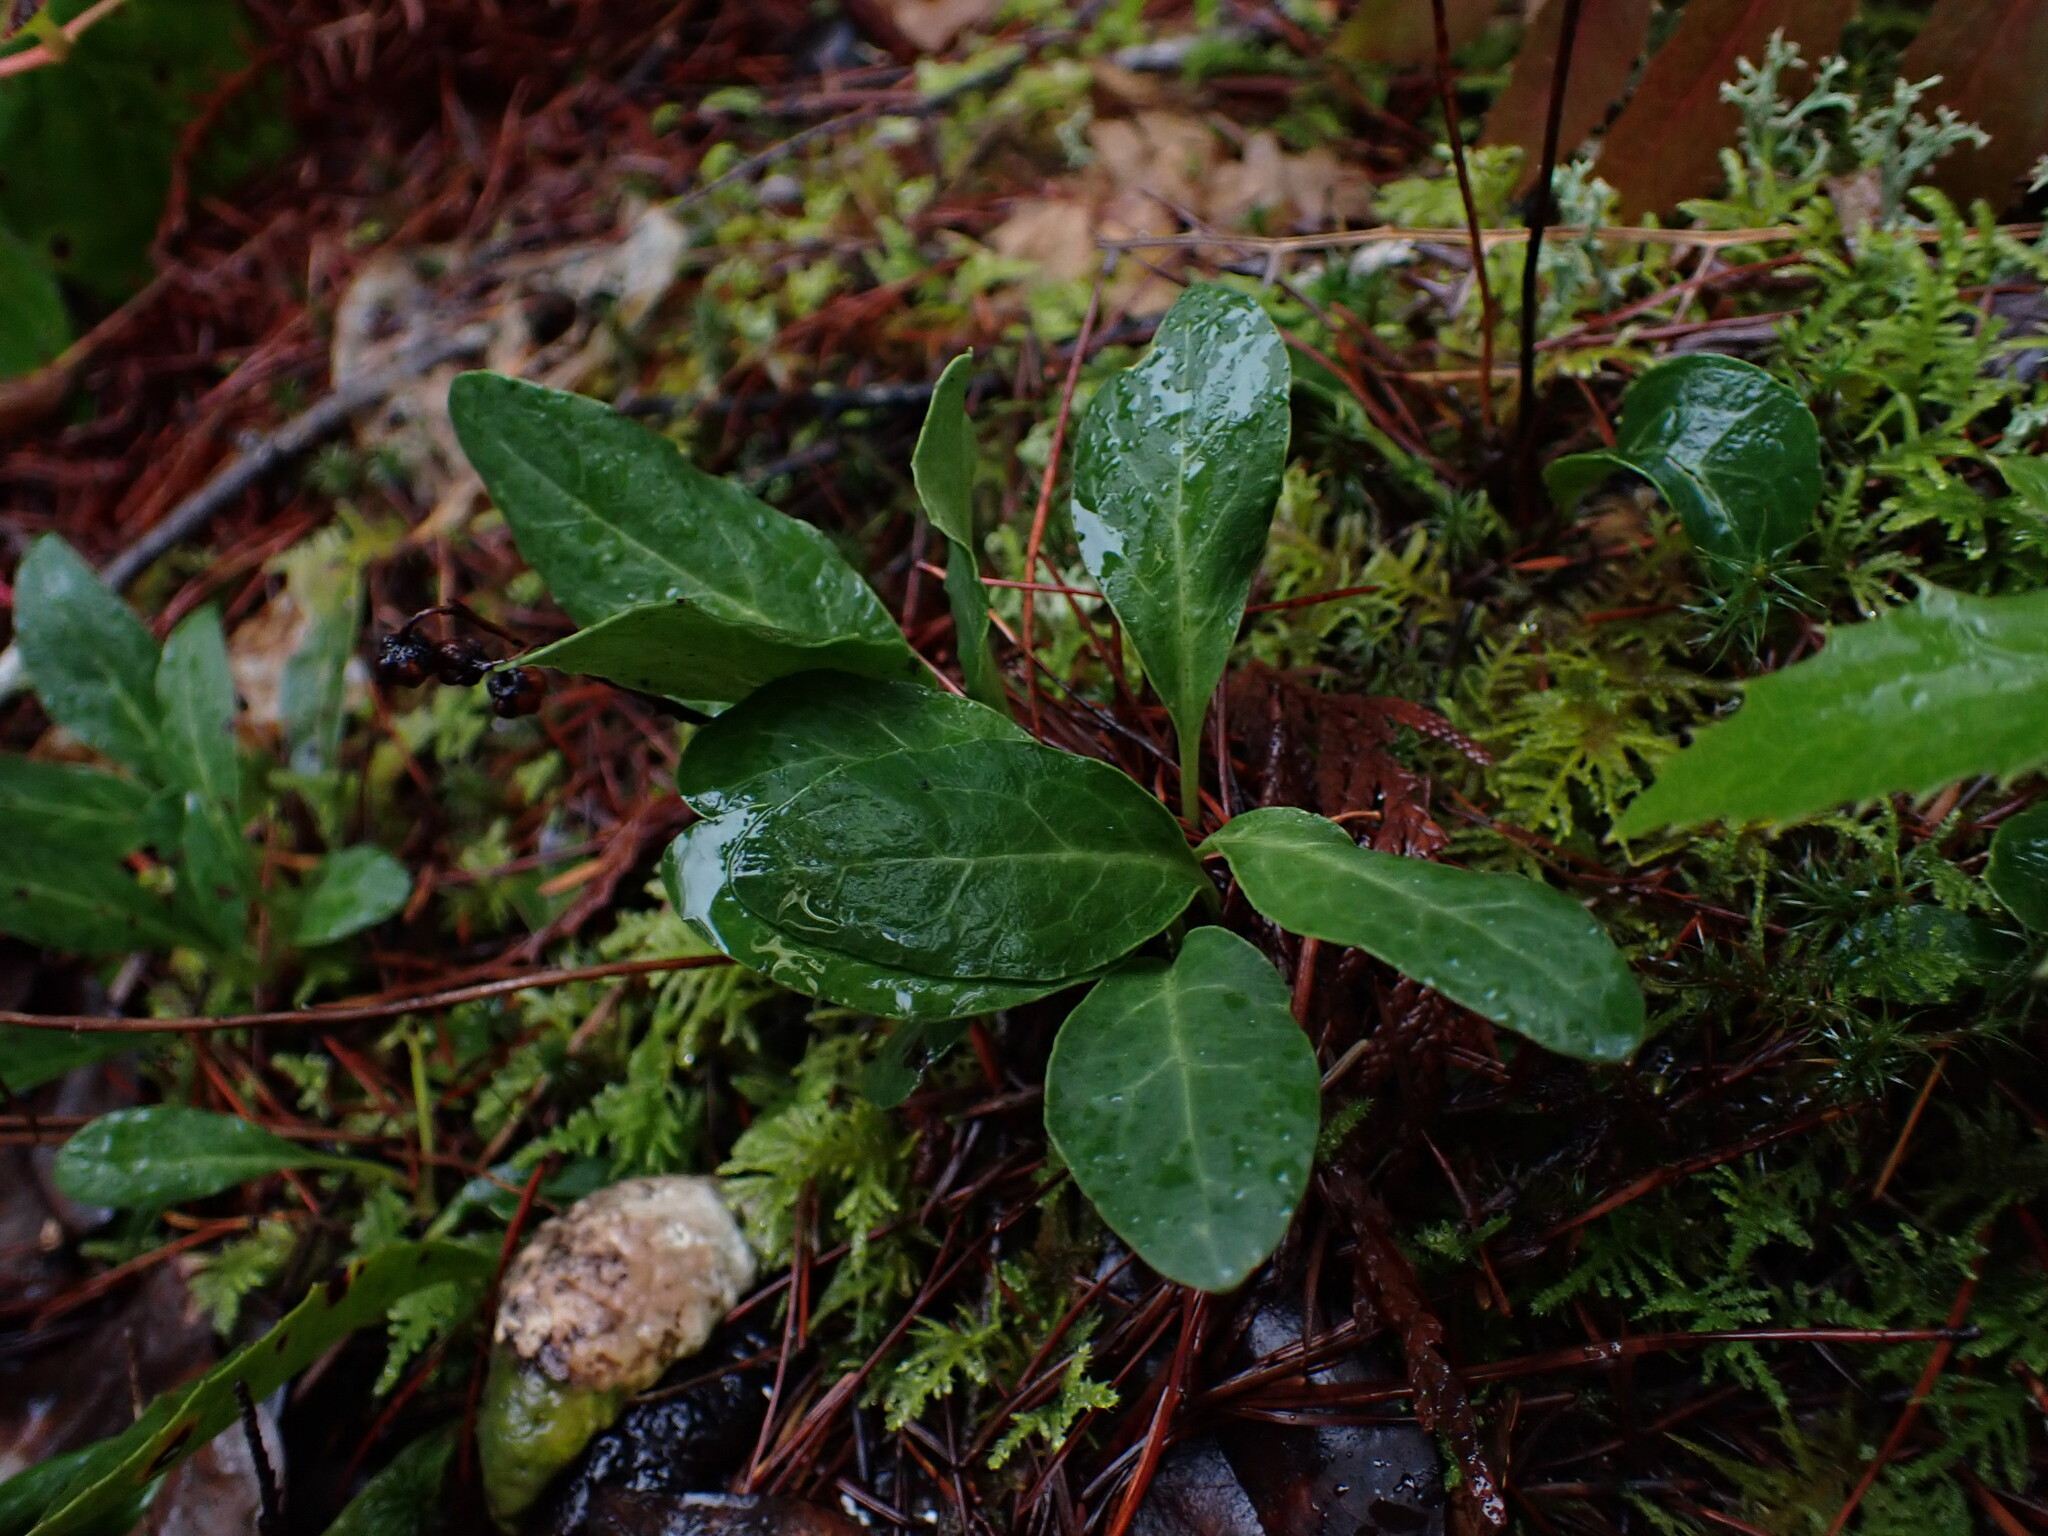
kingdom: Plantae
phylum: Tracheophyta
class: Magnoliopsida
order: Ericales
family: Ericaceae
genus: Pyrola
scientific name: Pyrola dentata
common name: Tooth-leaved wintergreen
